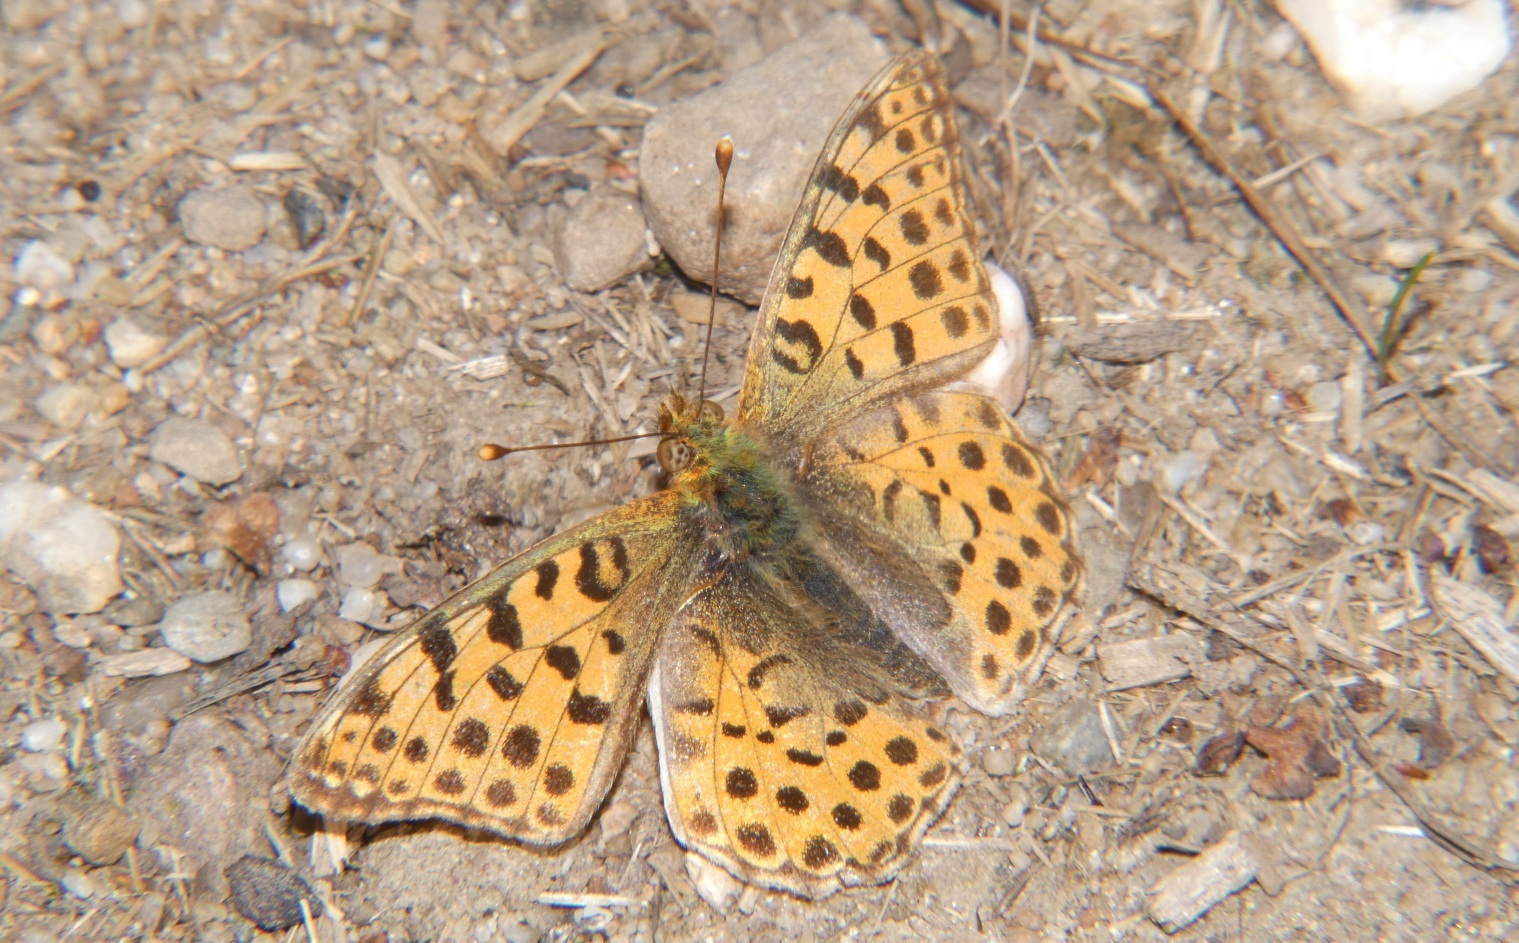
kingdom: Animalia
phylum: Arthropoda
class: Insecta
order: Lepidoptera
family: Nymphalidae
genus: Issoria
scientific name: Issoria lathonia
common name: Queen of spain fritillary
